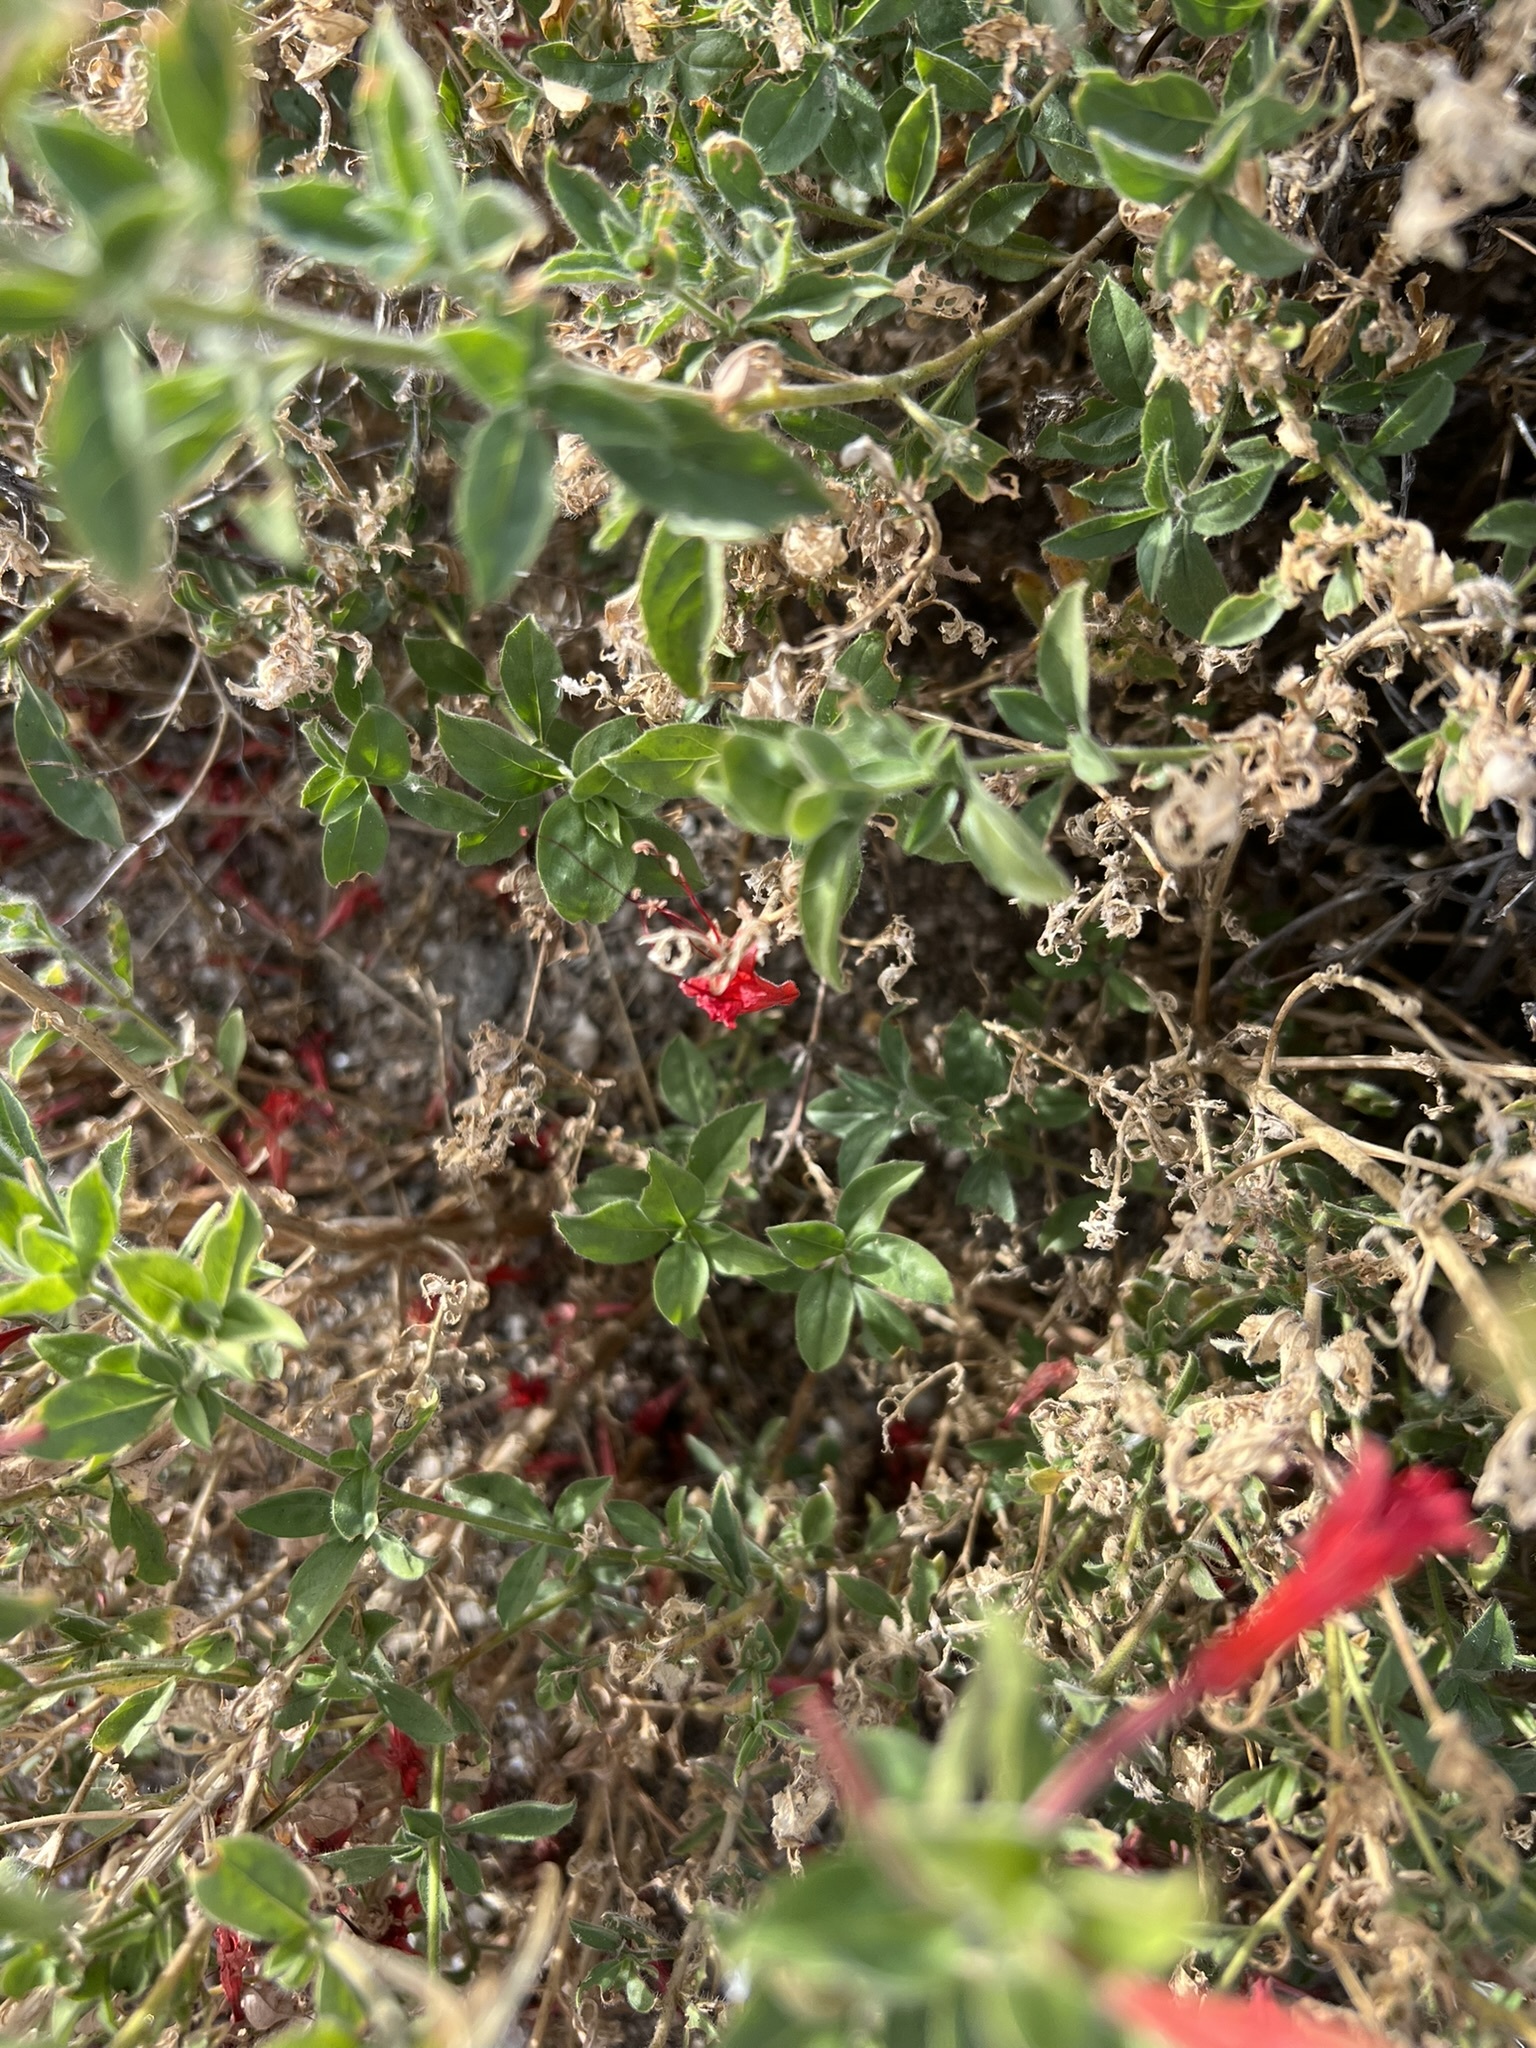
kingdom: Plantae
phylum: Tracheophyta
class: Magnoliopsida
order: Myrtales
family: Onagraceae
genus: Epilobium
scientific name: Epilobium canum
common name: California-fuchsia
